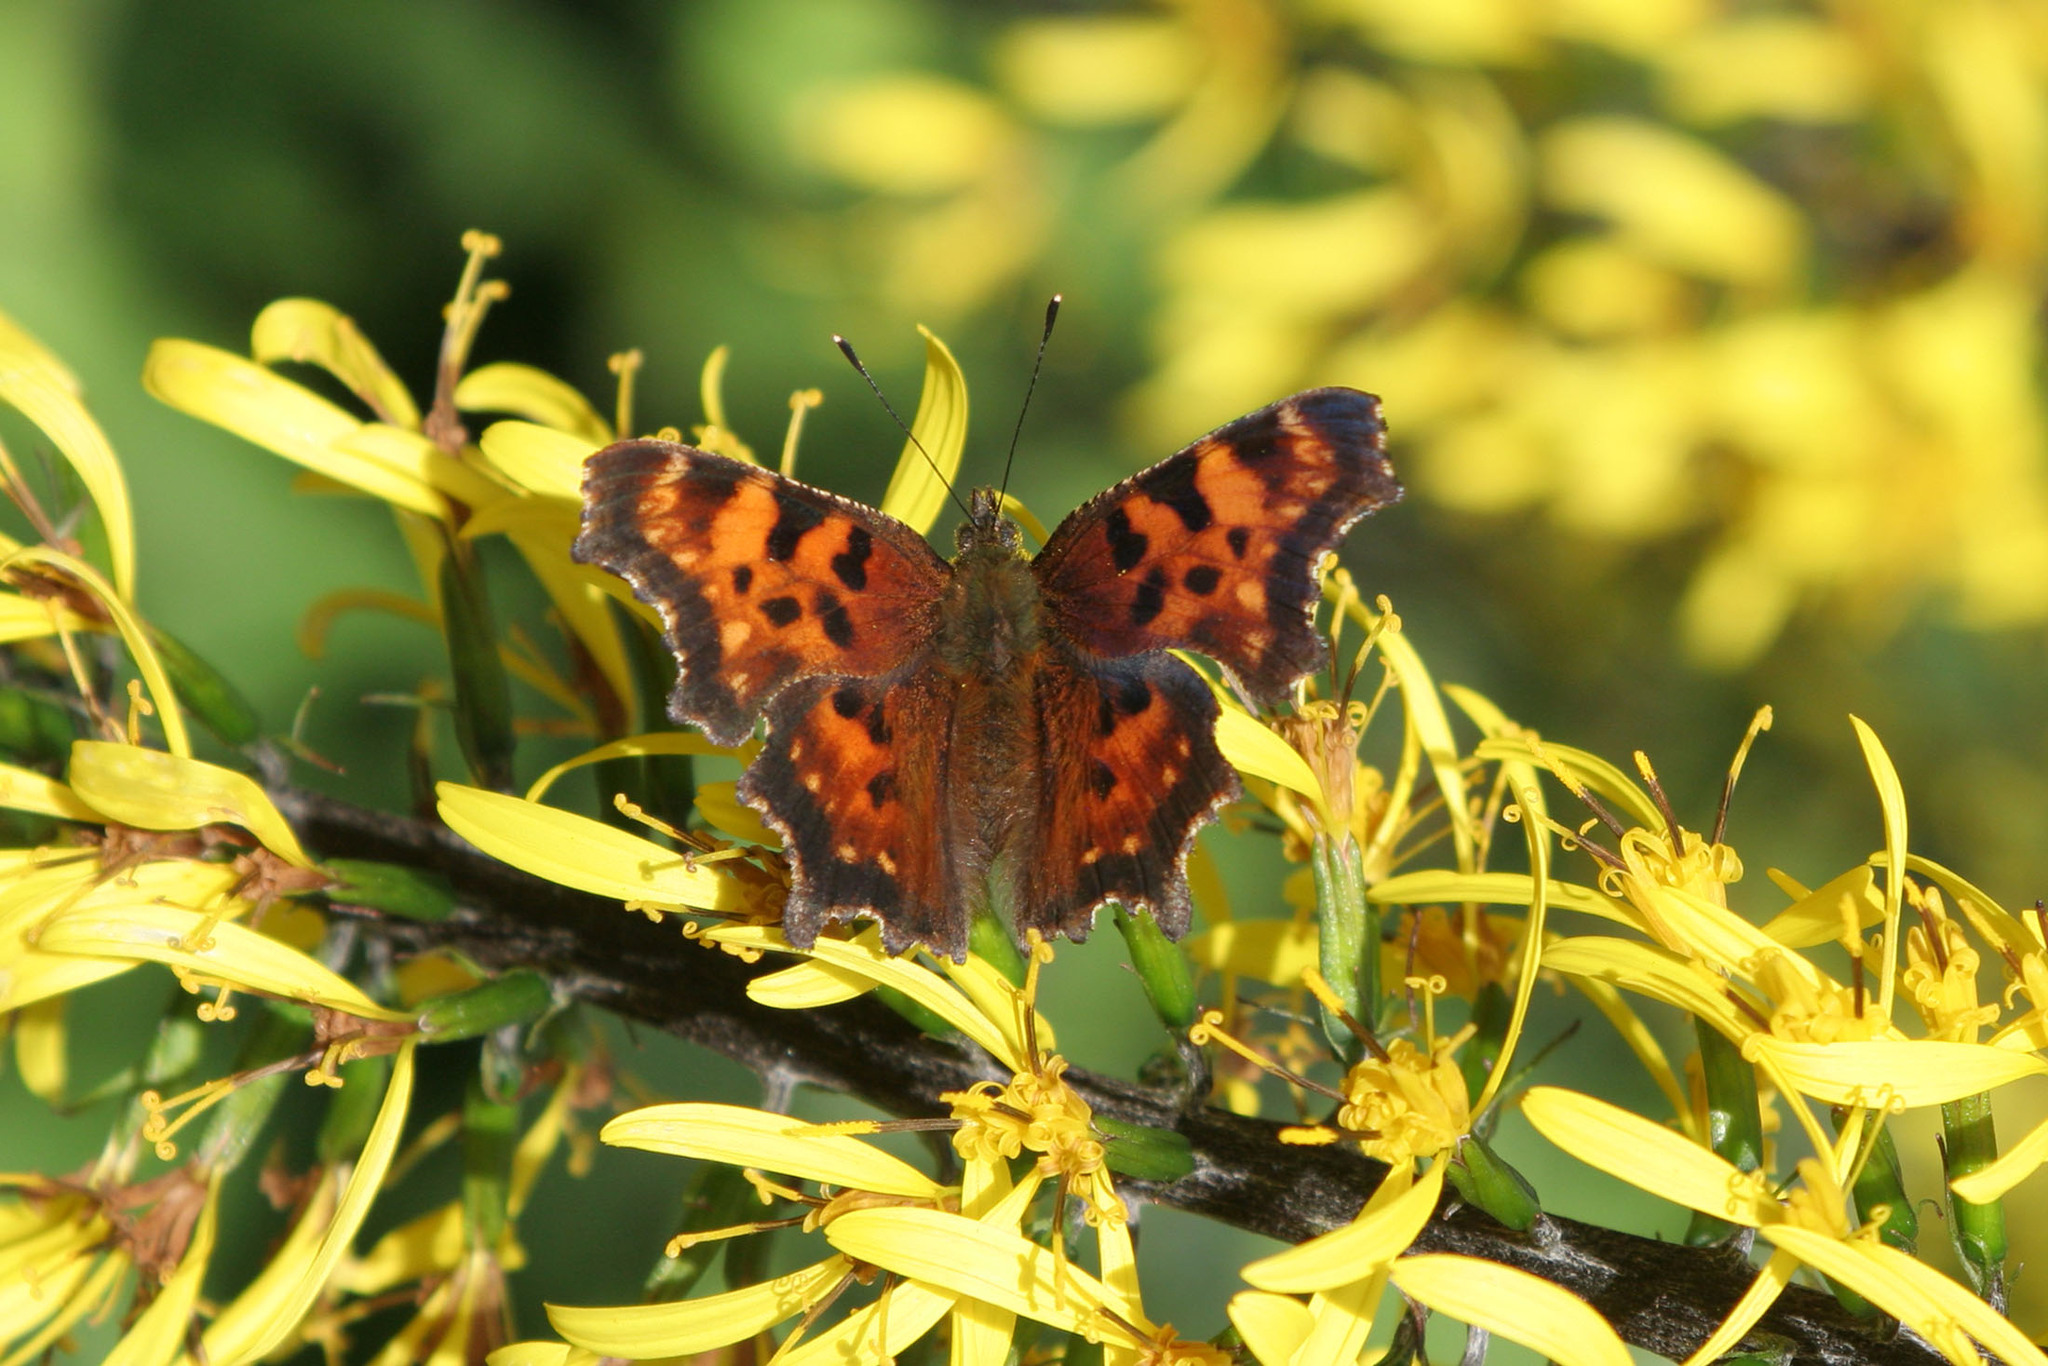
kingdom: Animalia
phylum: Arthropoda
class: Insecta
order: Lepidoptera
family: Nymphalidae
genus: Polygonia
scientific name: Polygonia faunus
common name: Green comma
